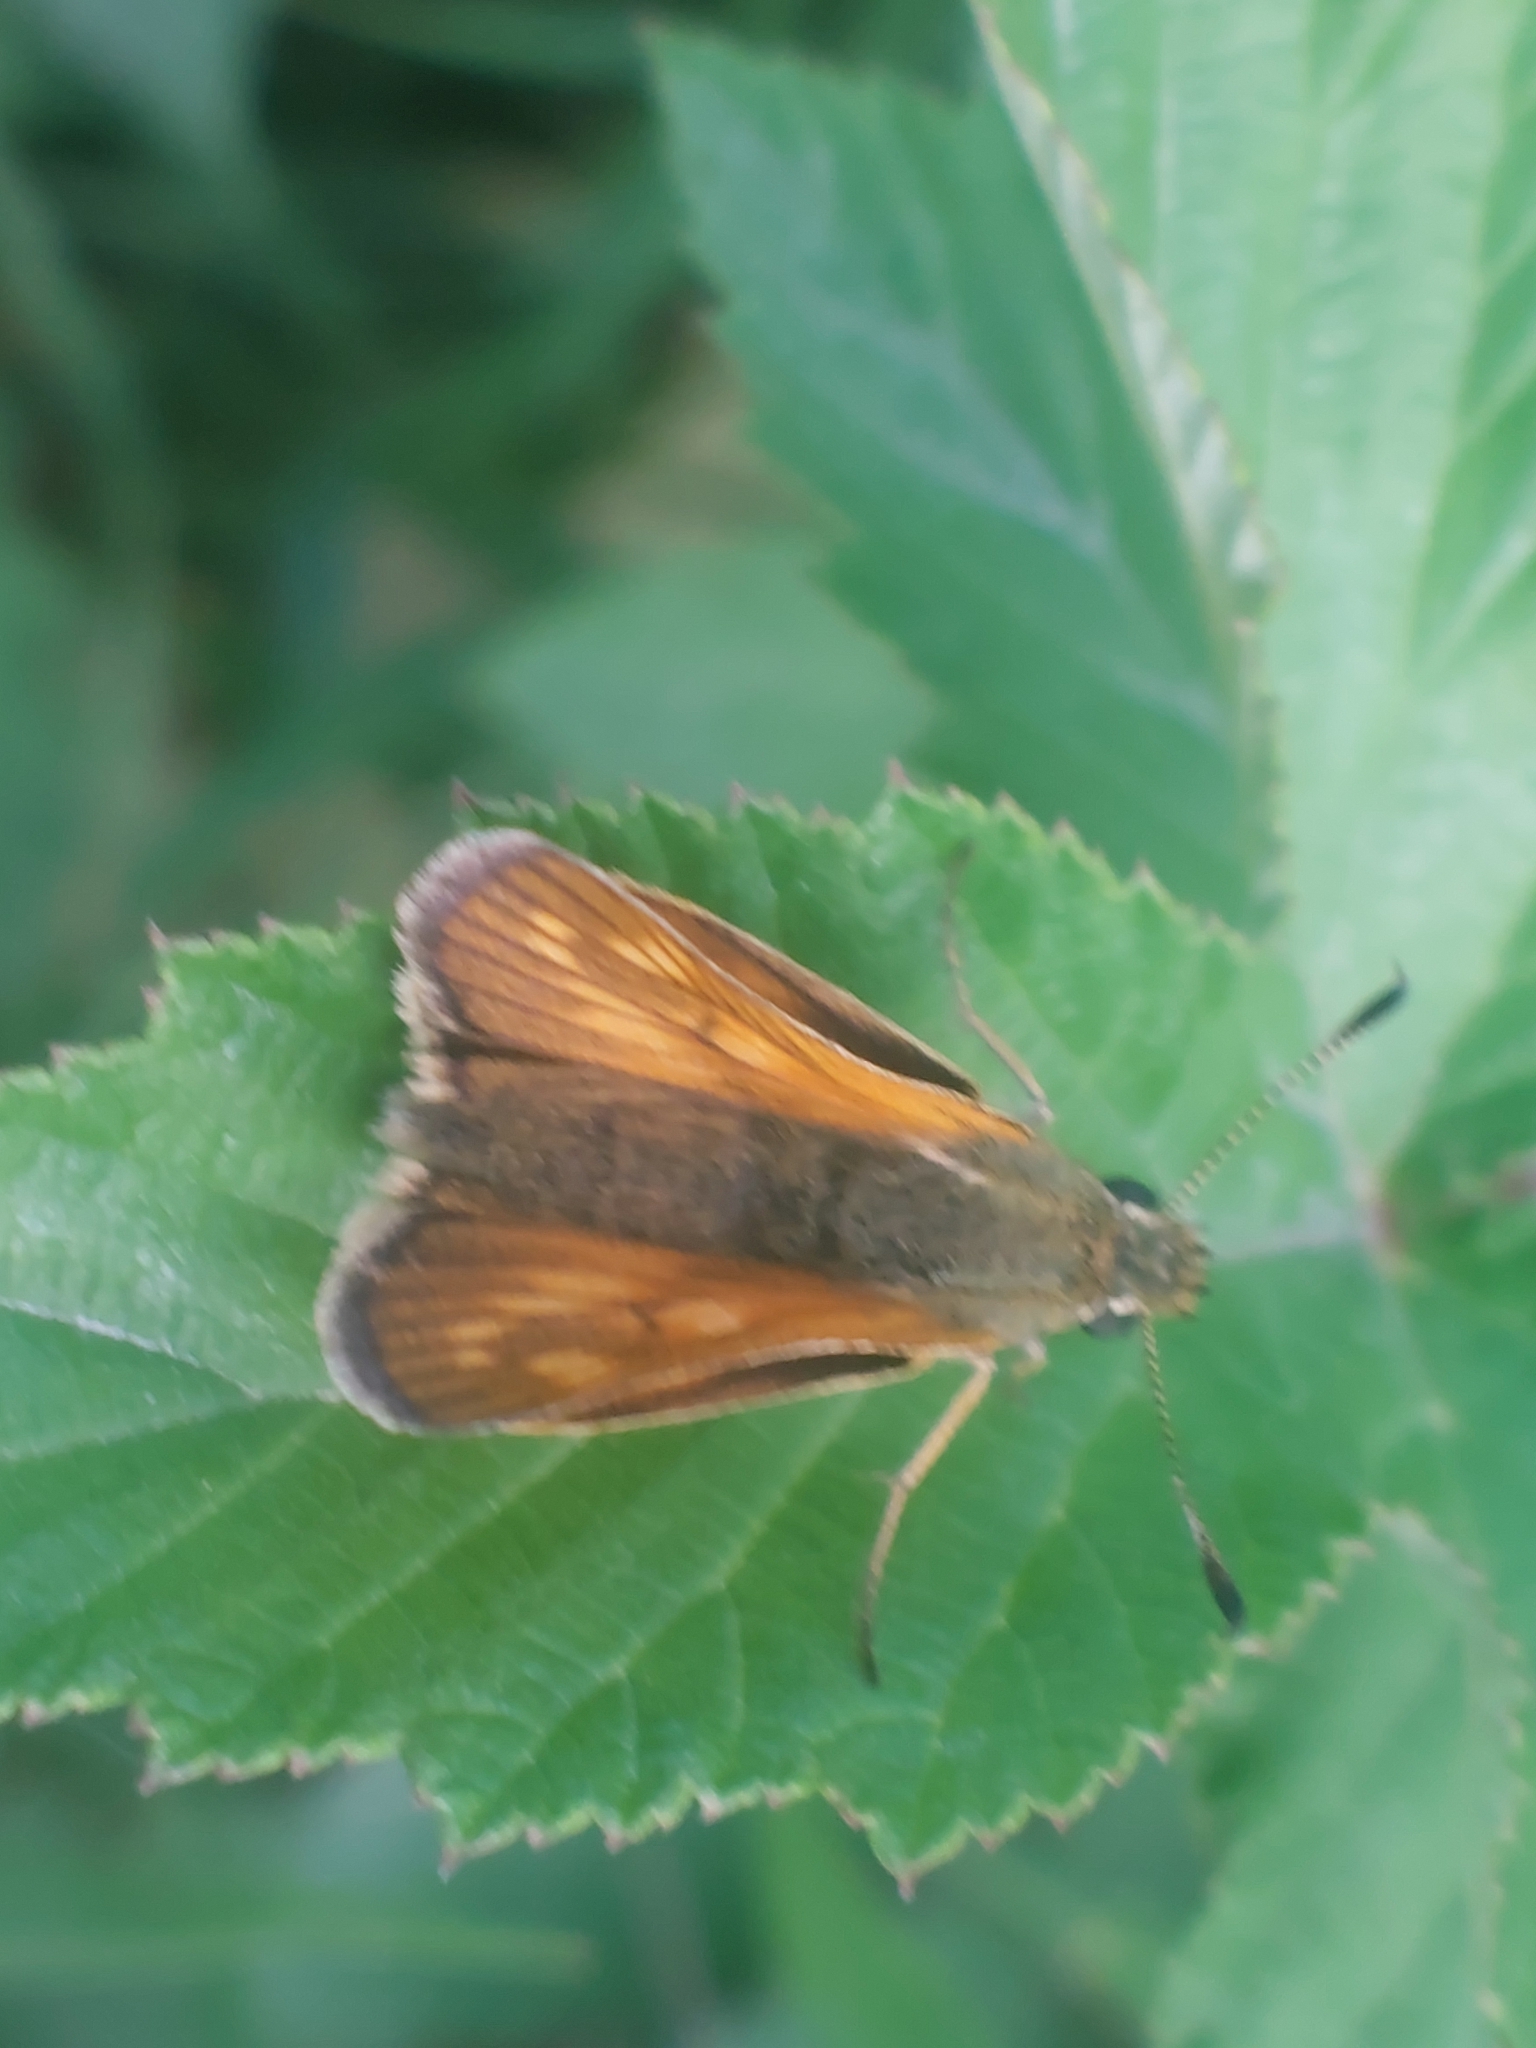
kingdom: Animalia
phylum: Arthropoda
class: Insecta
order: Lepidoptera
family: Hesperiidae
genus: Ochlodes
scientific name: Ochlodes venata
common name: Large skipper
